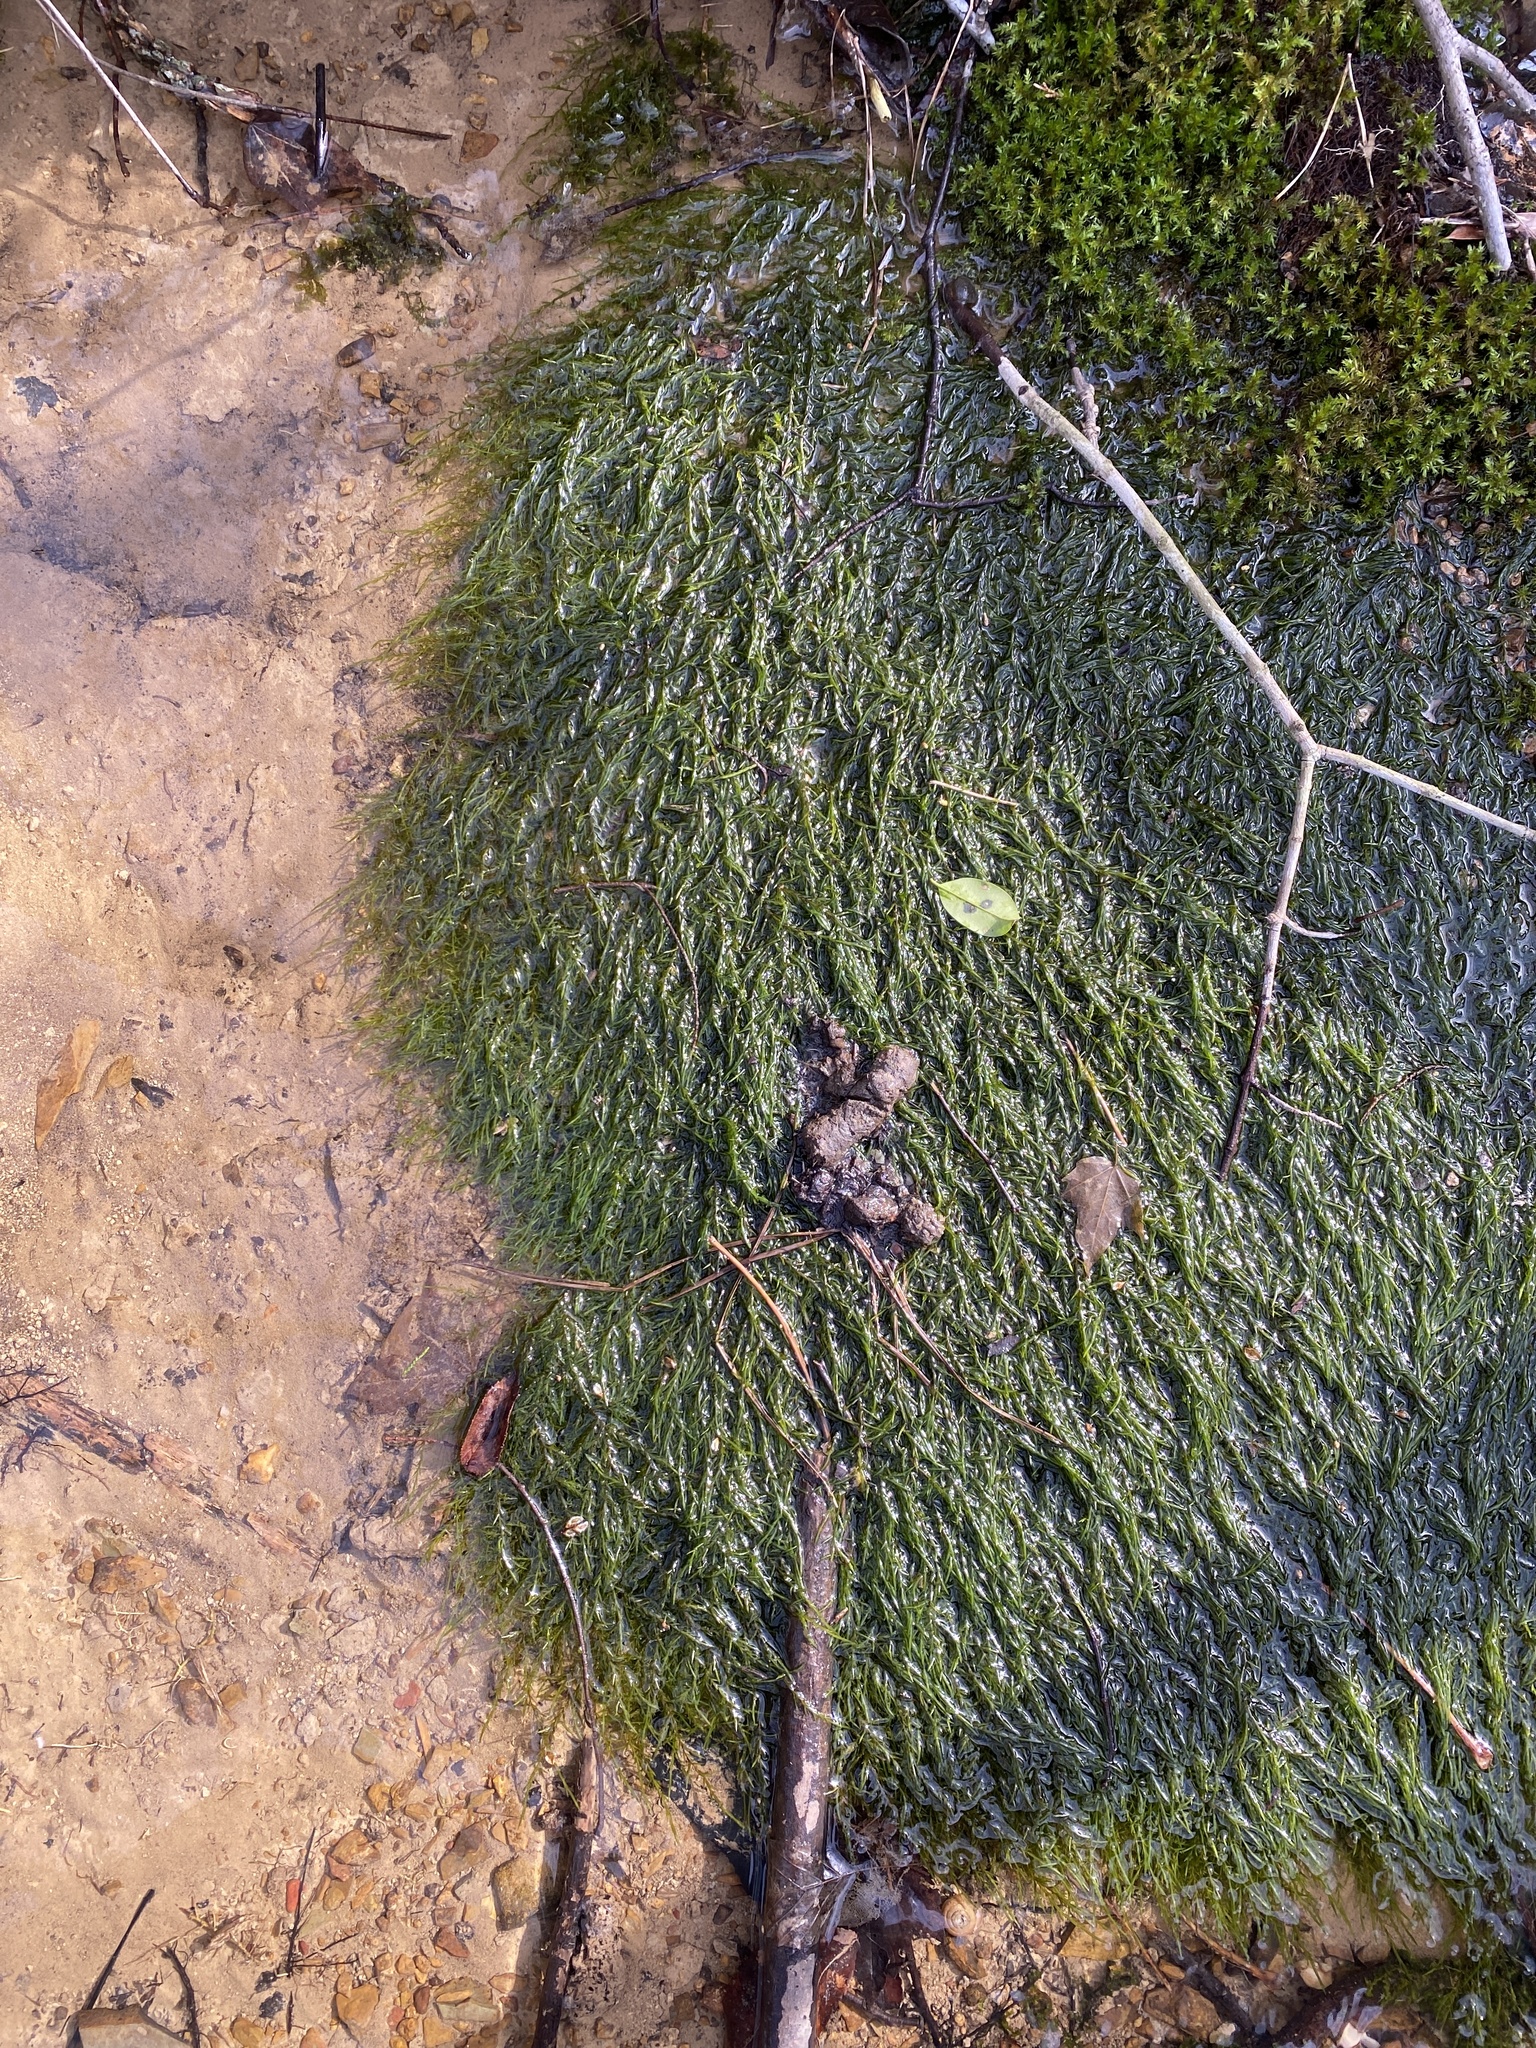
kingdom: Plantae
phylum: Bryophyta
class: Bryopsida
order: Hypnales
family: Fontinalaceae
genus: Fontinalis
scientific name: Fontinalis novae-angliae
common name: New england water moss
